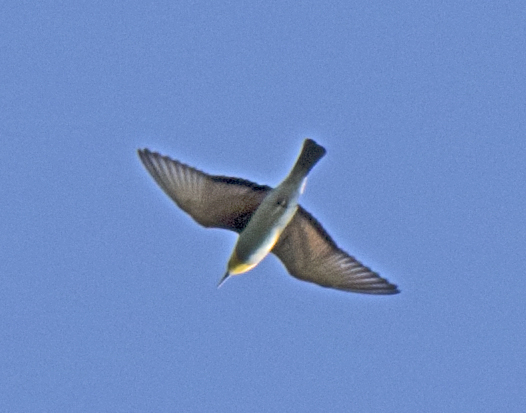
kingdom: Animalia
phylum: Chordata
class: Aves
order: Coraciiformes
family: Meropidae
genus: Merops
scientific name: Merops apiaster
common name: European bee-eater
